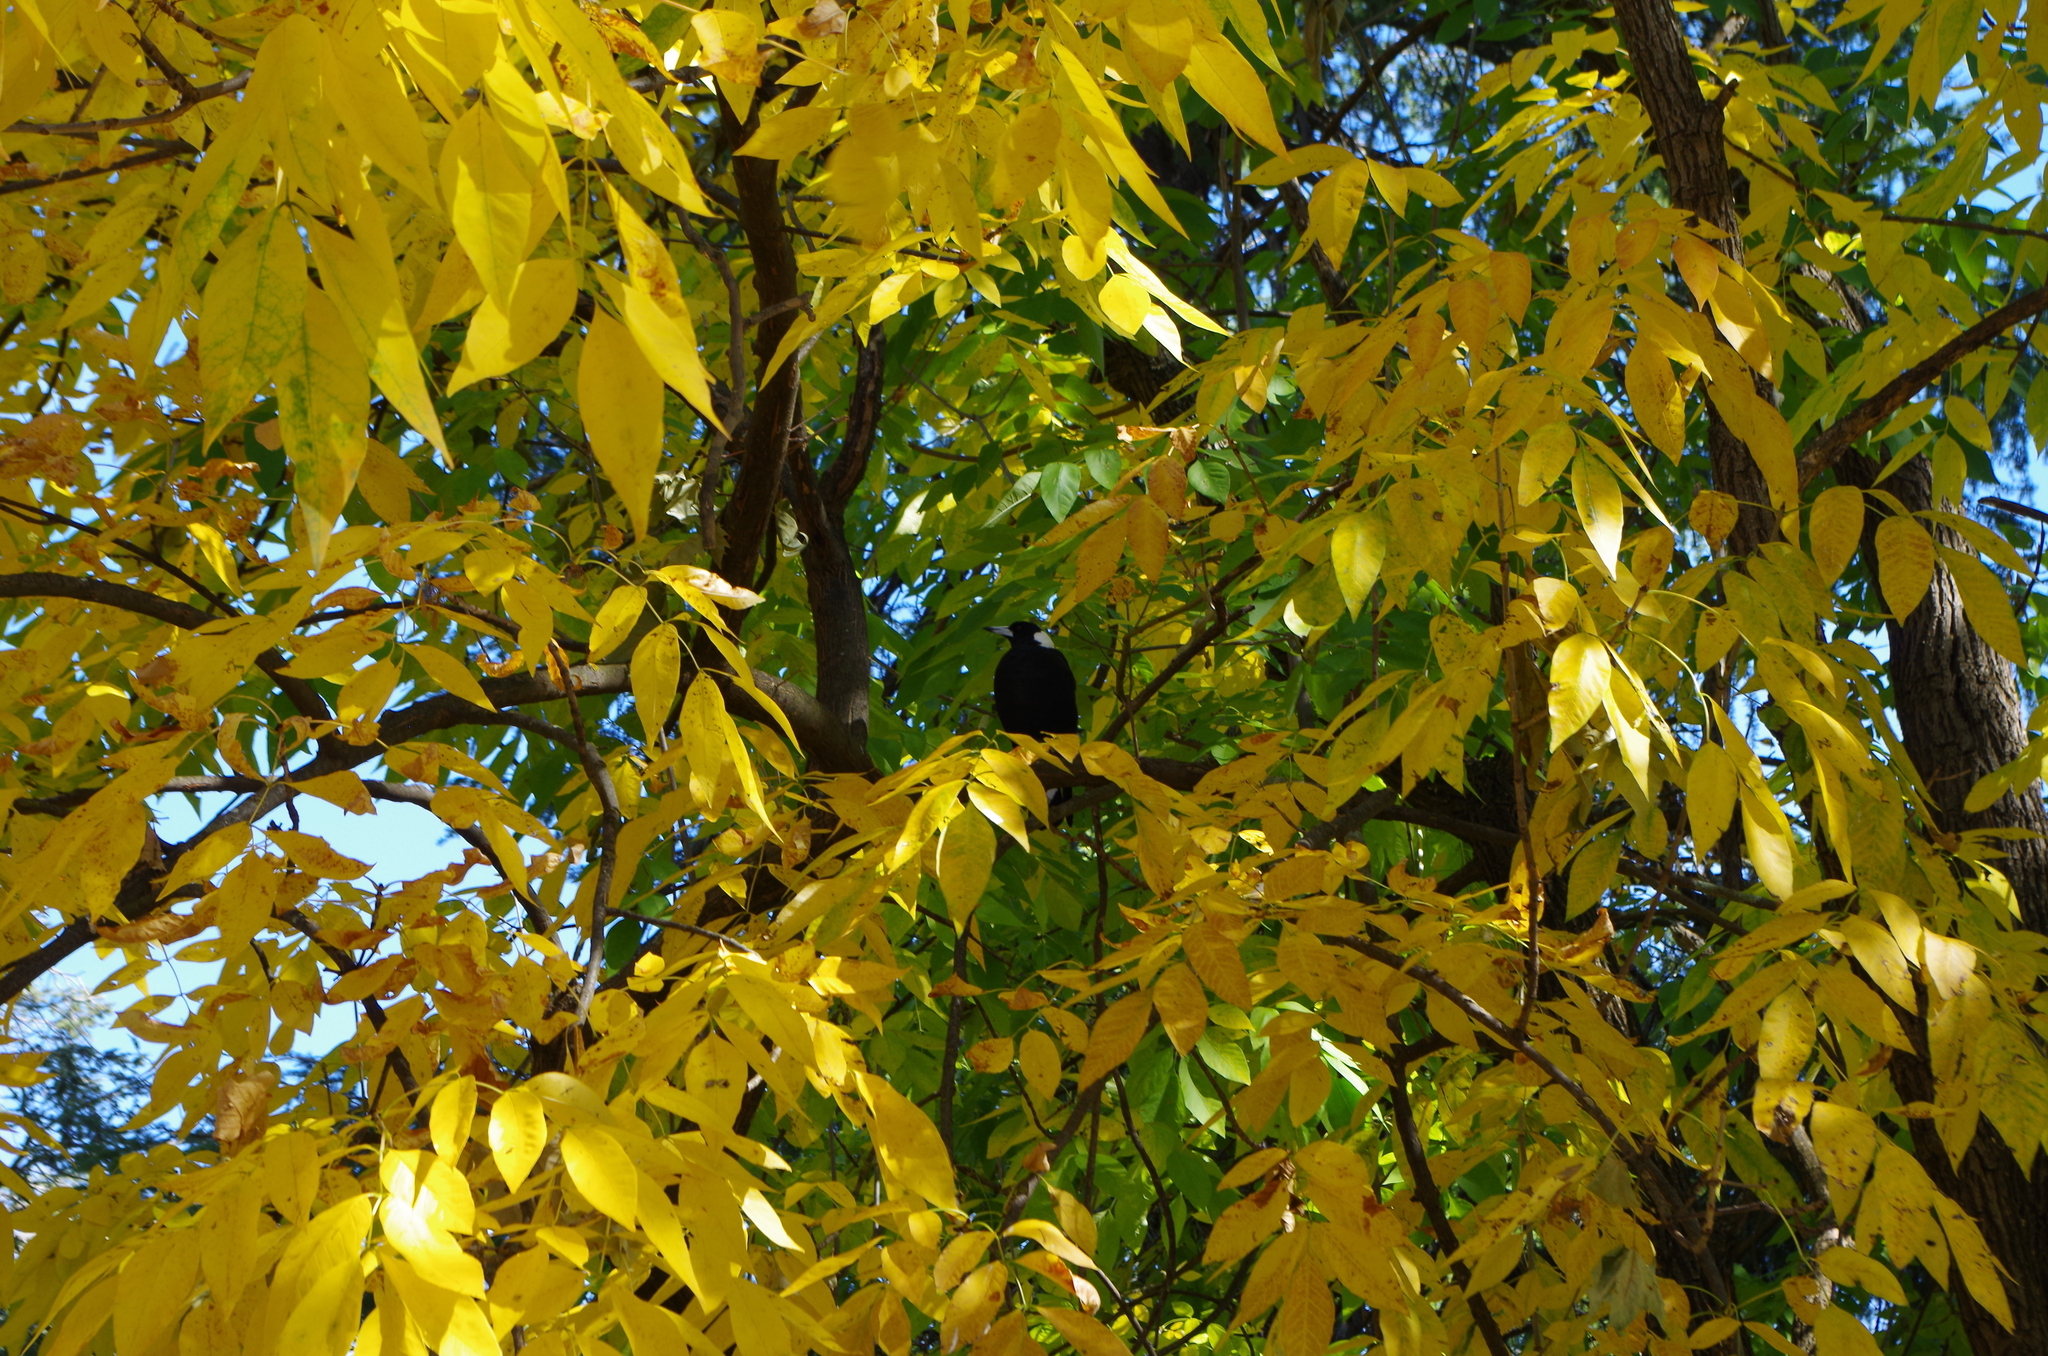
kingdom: Animalia
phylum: Chordata
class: Aves
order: Passeriformes
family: Cracticidae
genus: Gymnorhina
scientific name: Gymnorhina tibicen
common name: Australian magpie
